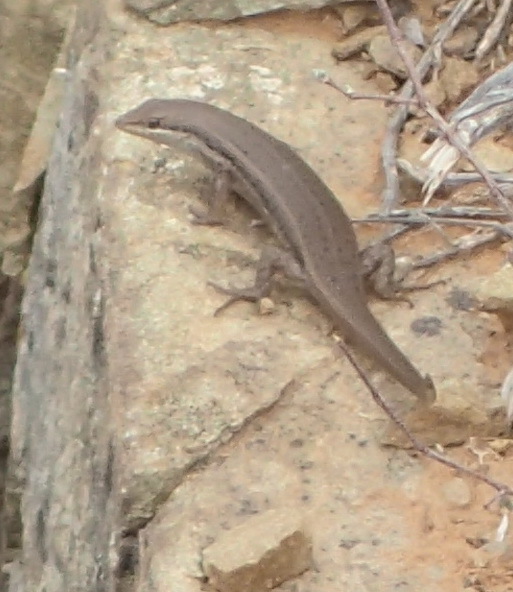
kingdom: Animalia
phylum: Chordata
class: Squamata
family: Scincidae
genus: Trachylepis
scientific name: Trachylepis variegata
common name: Variegated skink
